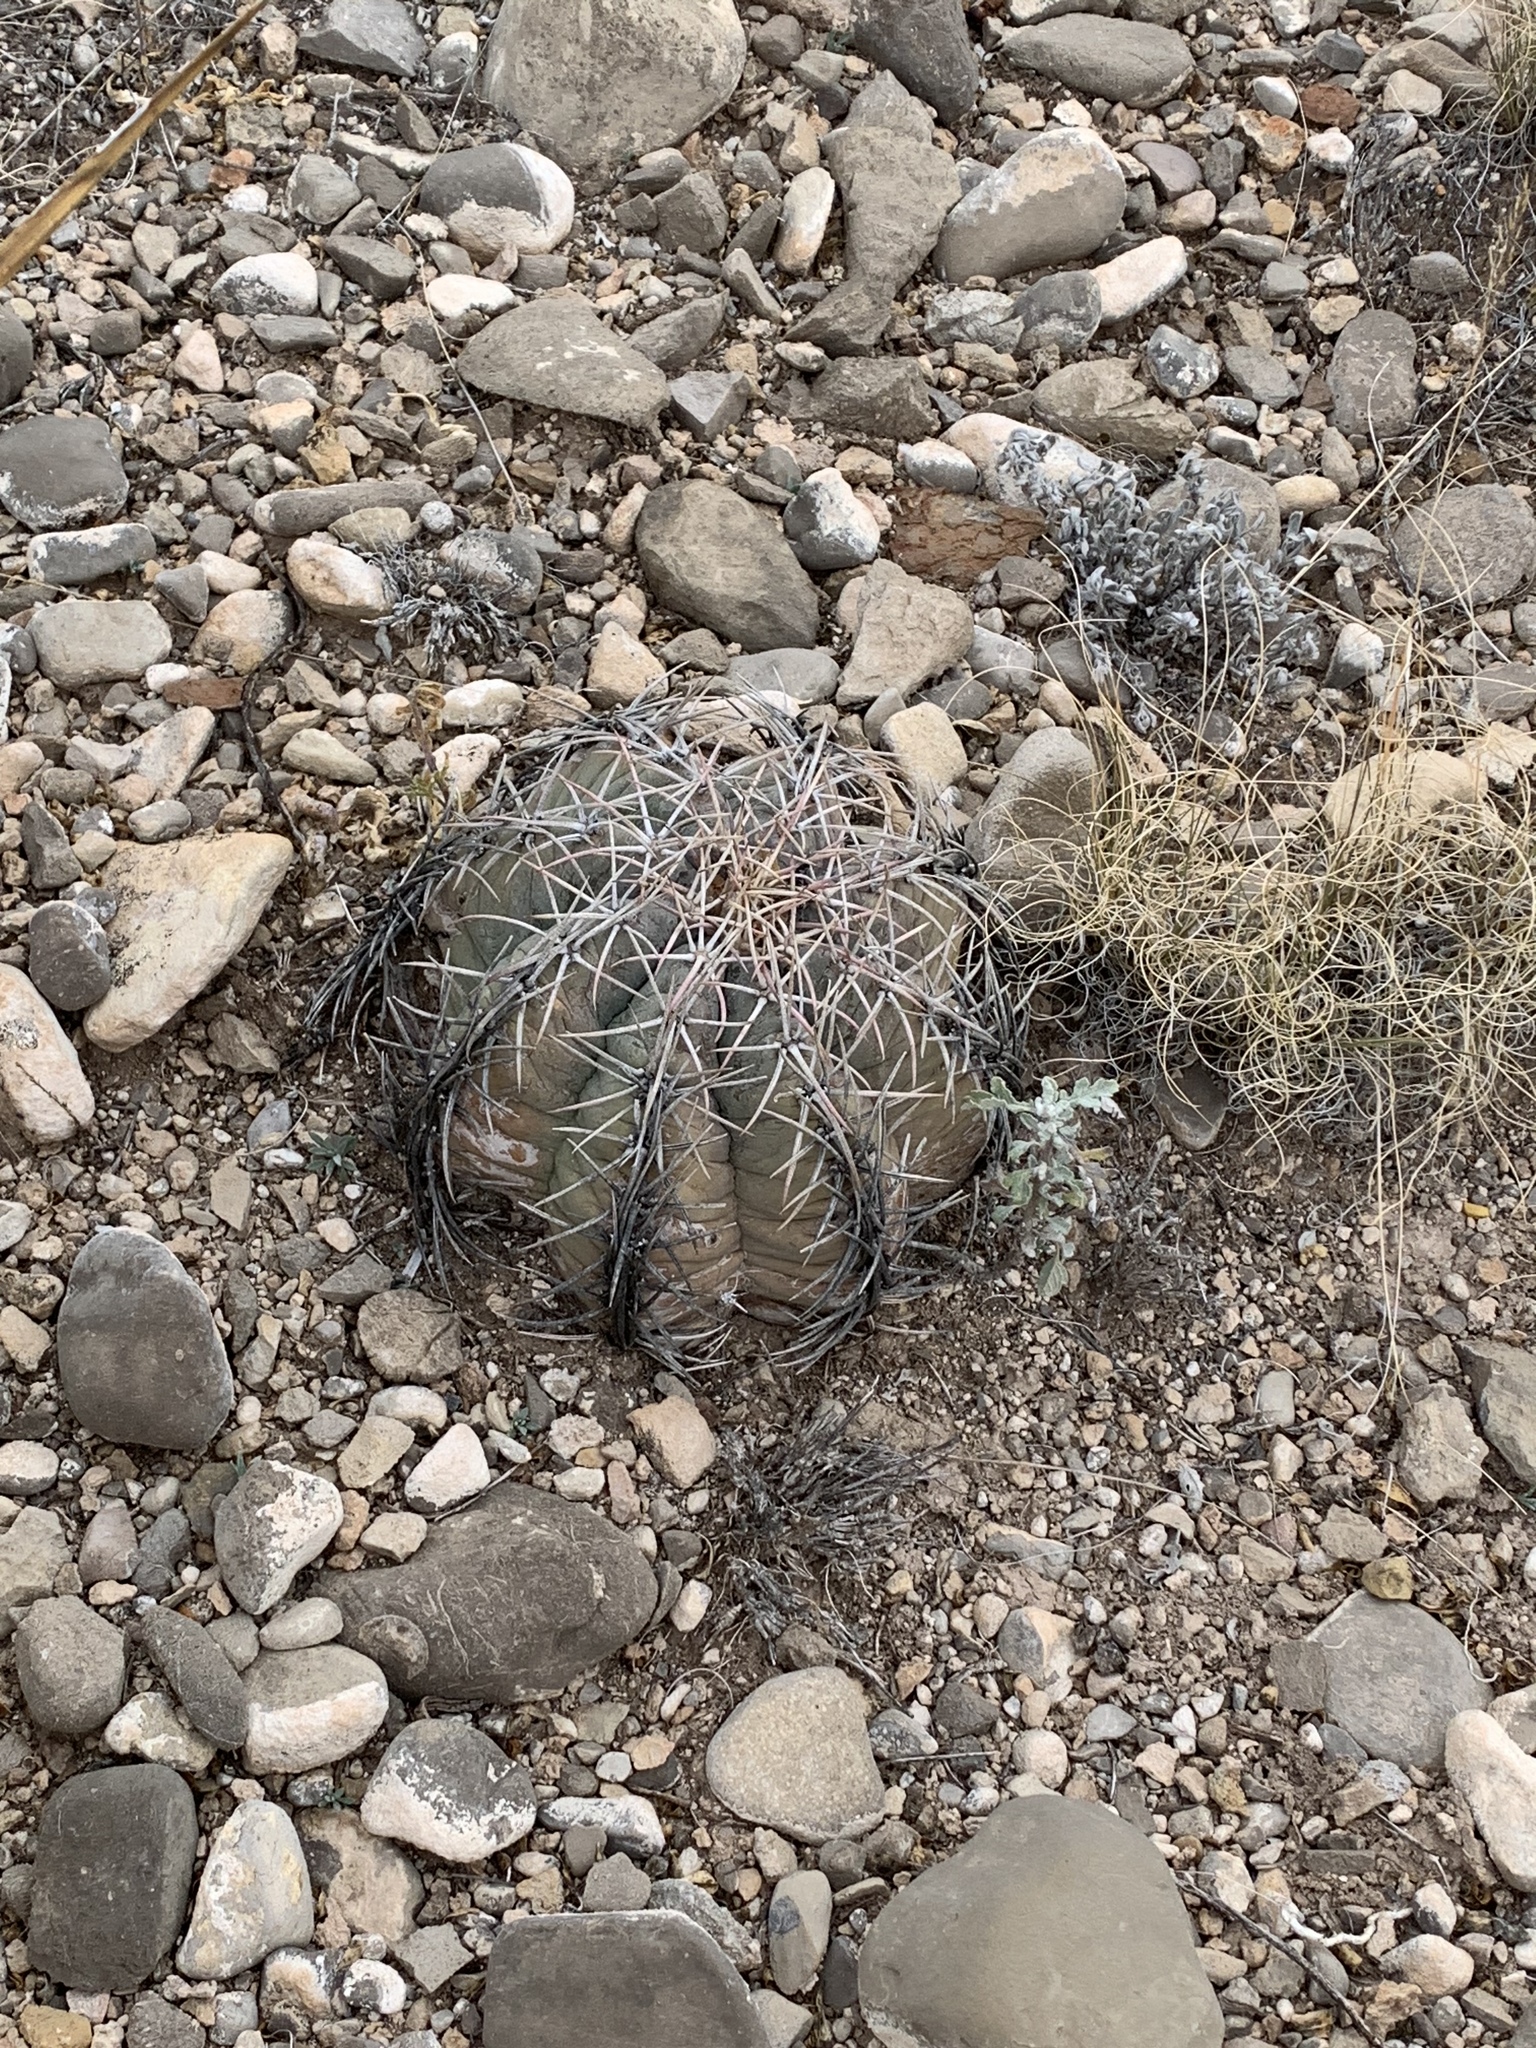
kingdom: Plantae
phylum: Tracheophyta
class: Magnoliopsida
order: Caryophyllales
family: Cactaceae
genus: Echinocactus
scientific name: Echinocactus horizonthalonius
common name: Devilshead
